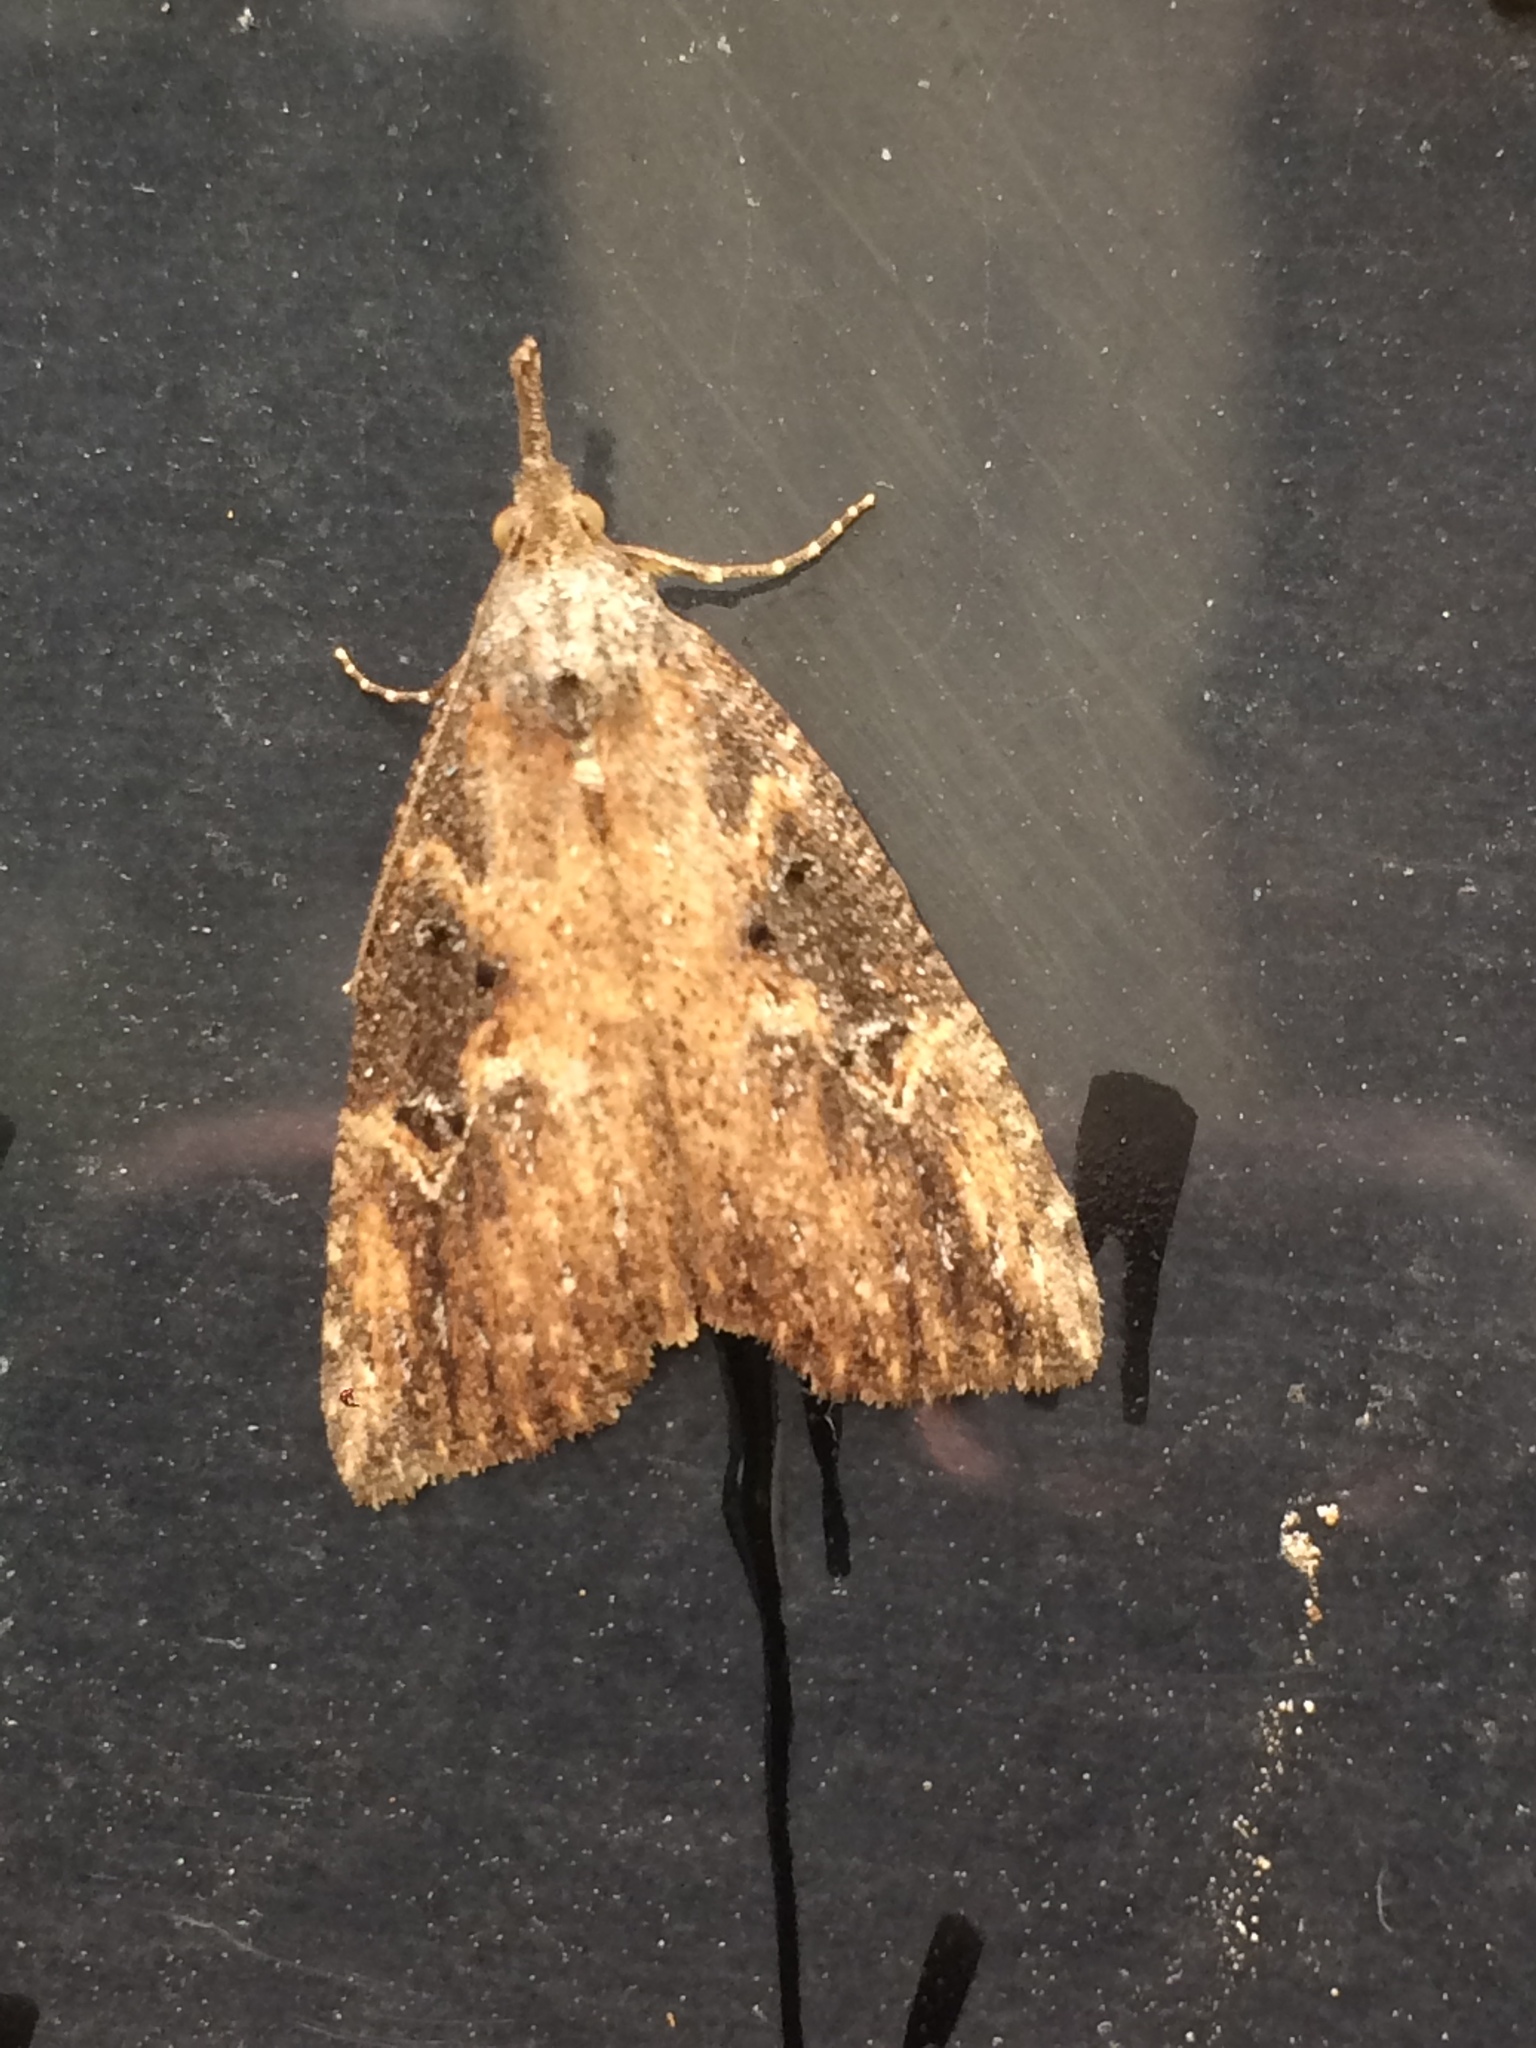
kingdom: Animalia
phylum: Arthropoda
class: Insecta
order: Lepidoptera
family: Erebidae
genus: Hypena
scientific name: Hypena humuli
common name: Hop vine snout
